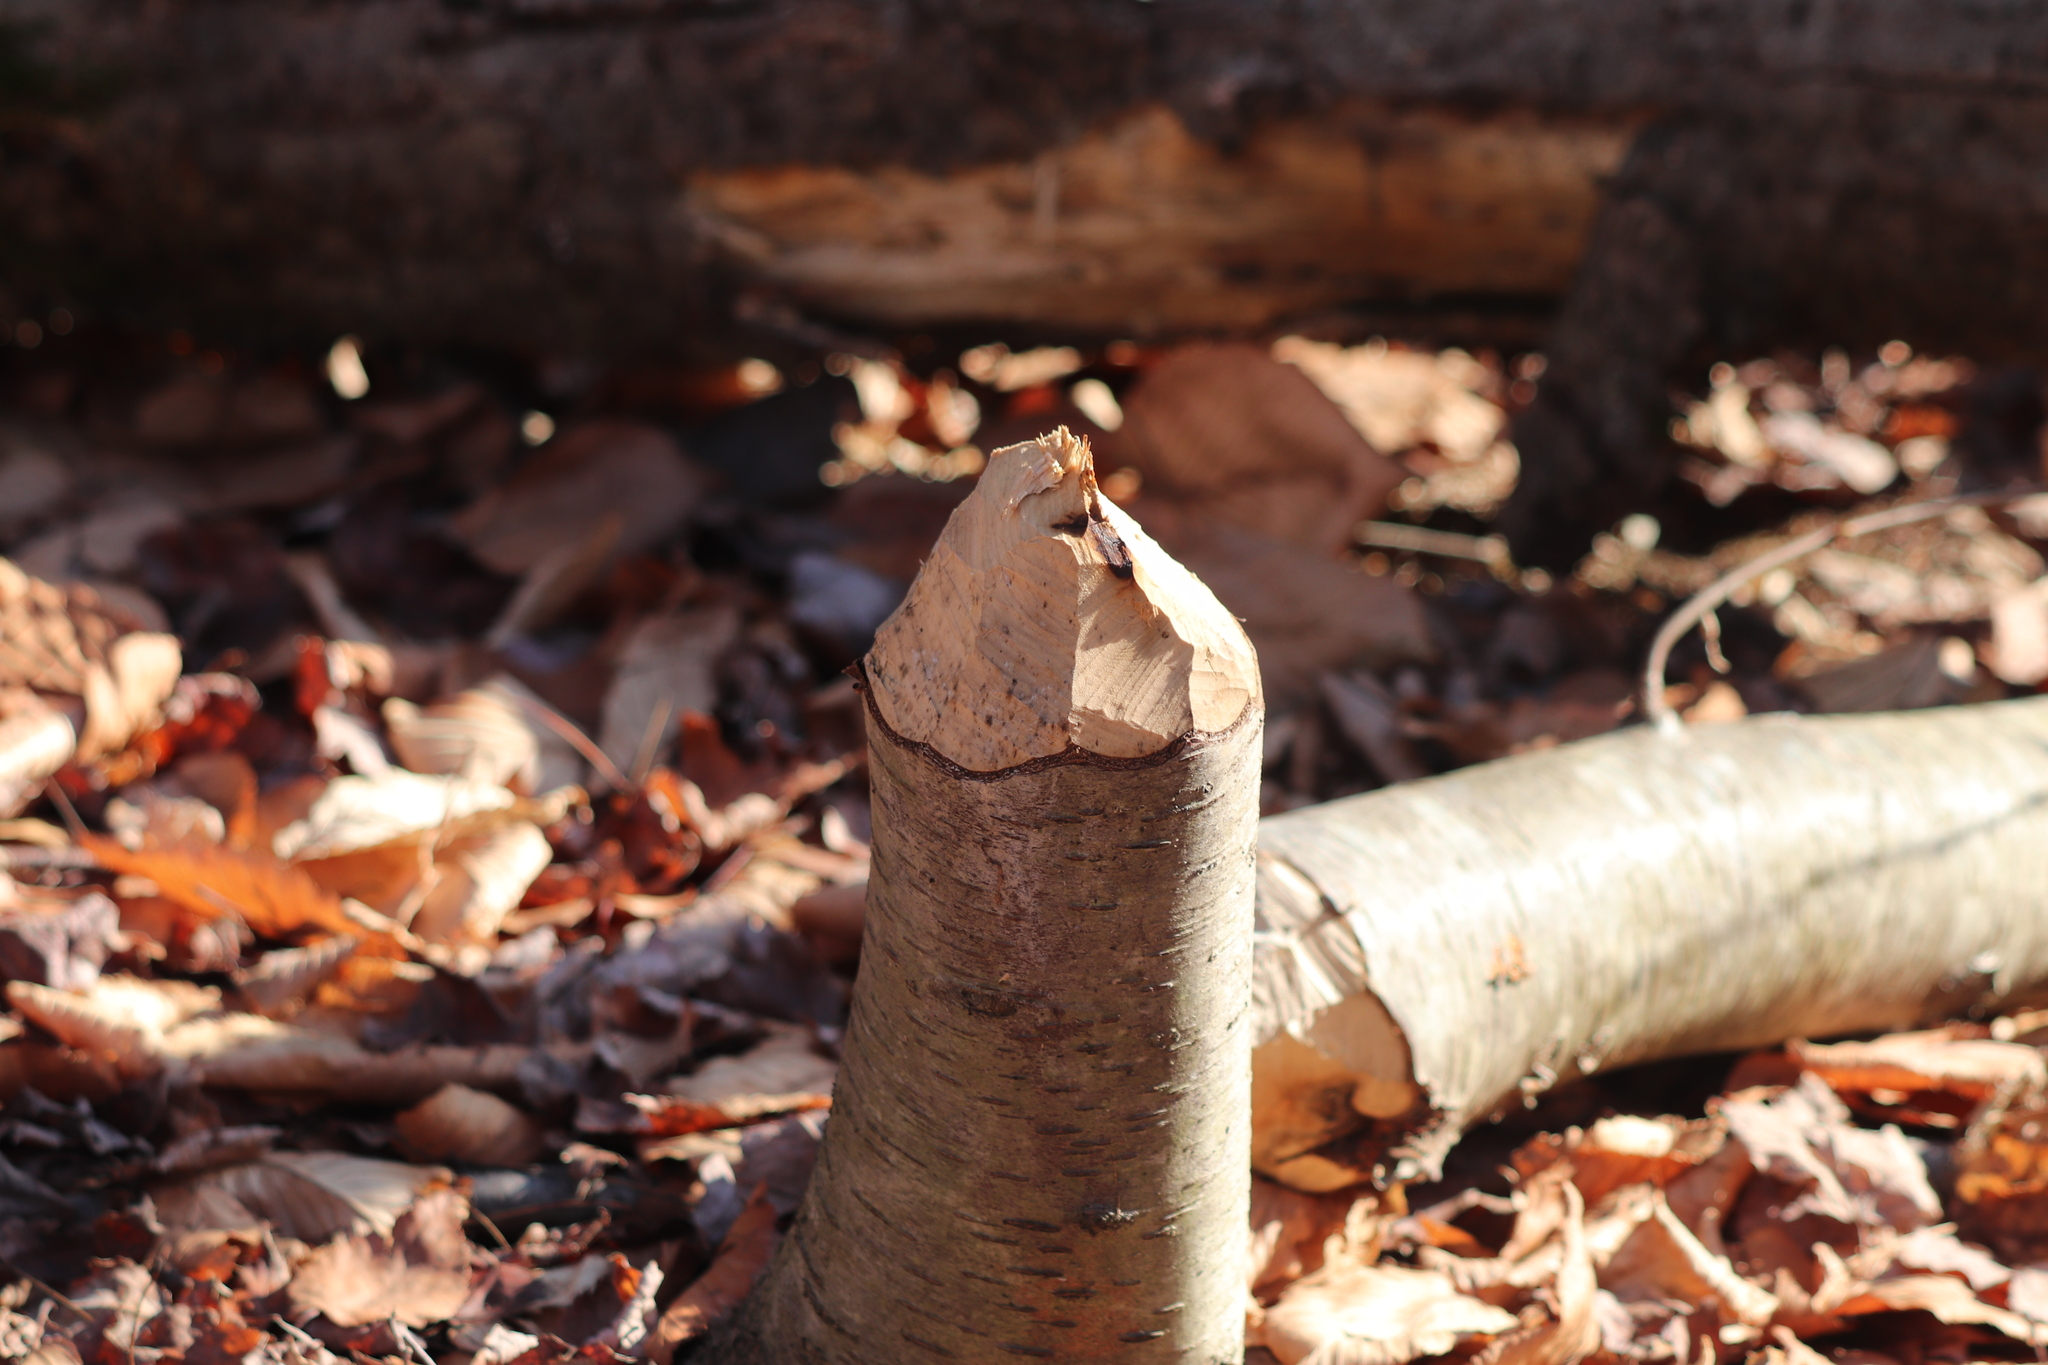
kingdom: Animalia
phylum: Chordata
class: Mammalia
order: Rodentia
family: Castoridae
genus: Castor
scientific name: Castor canadensis
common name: American beaver
